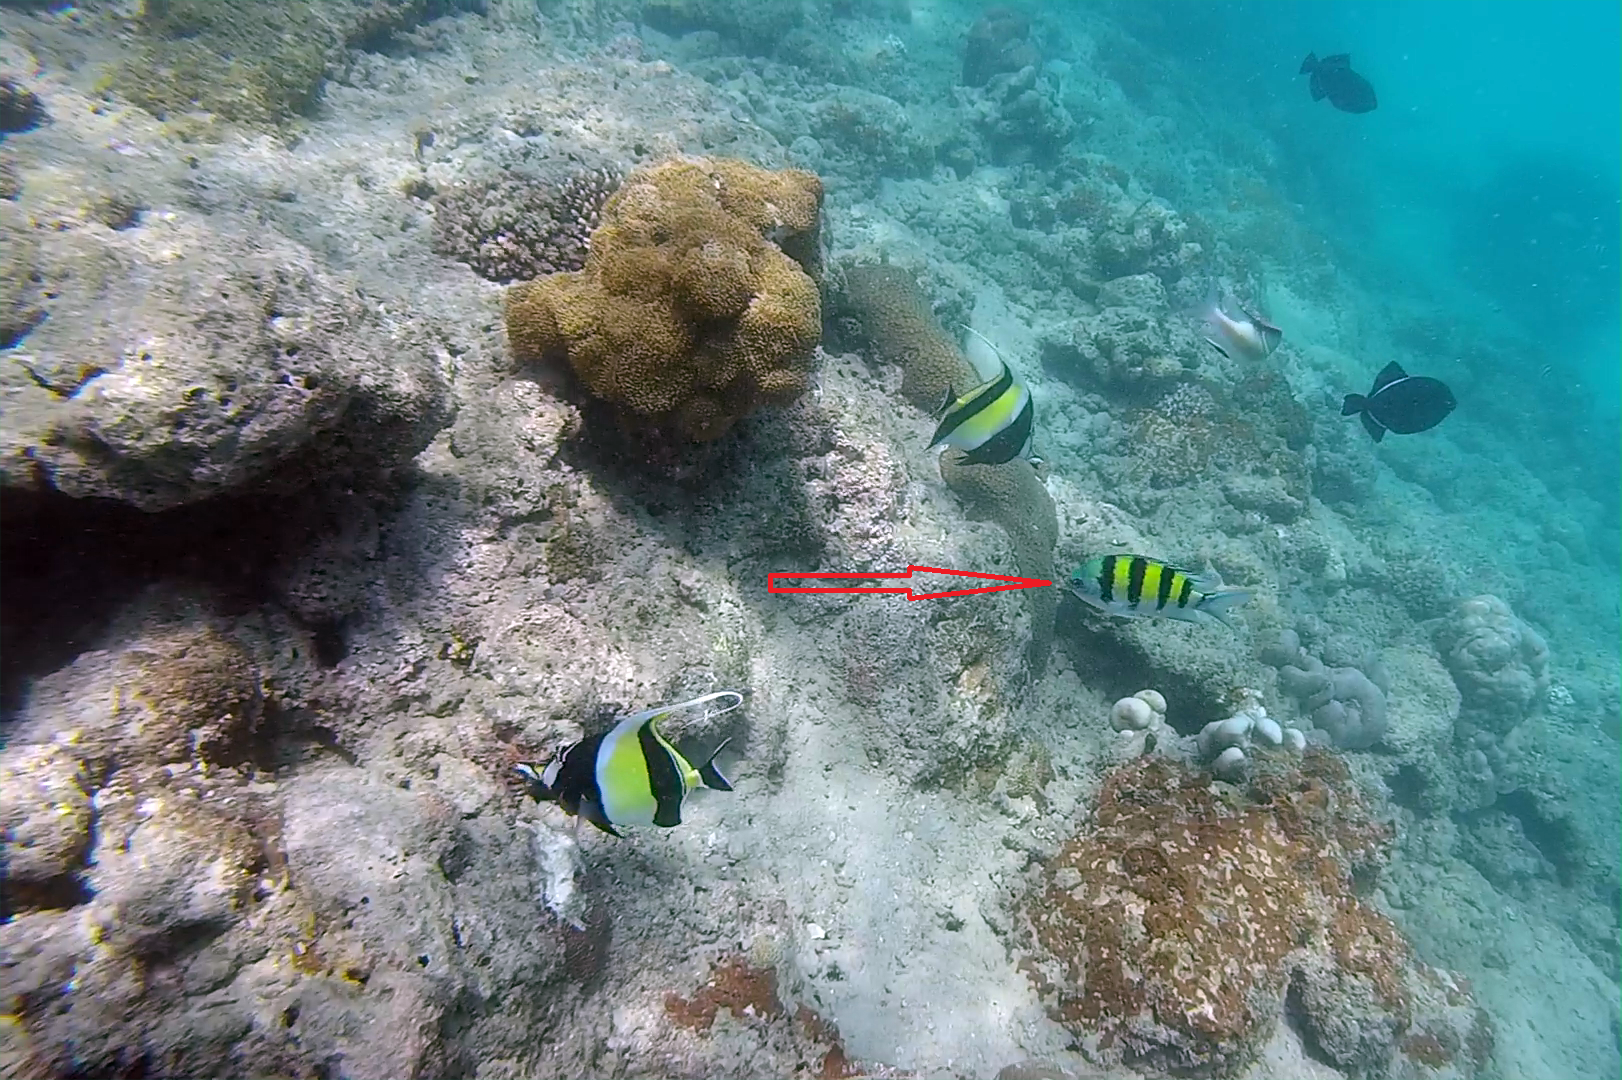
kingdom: Animalia
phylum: Chordata
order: Perciformes
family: Pomacentridae
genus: Abudefduf
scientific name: Abudefduf vaigiensis
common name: Indo-pacific sergeant
